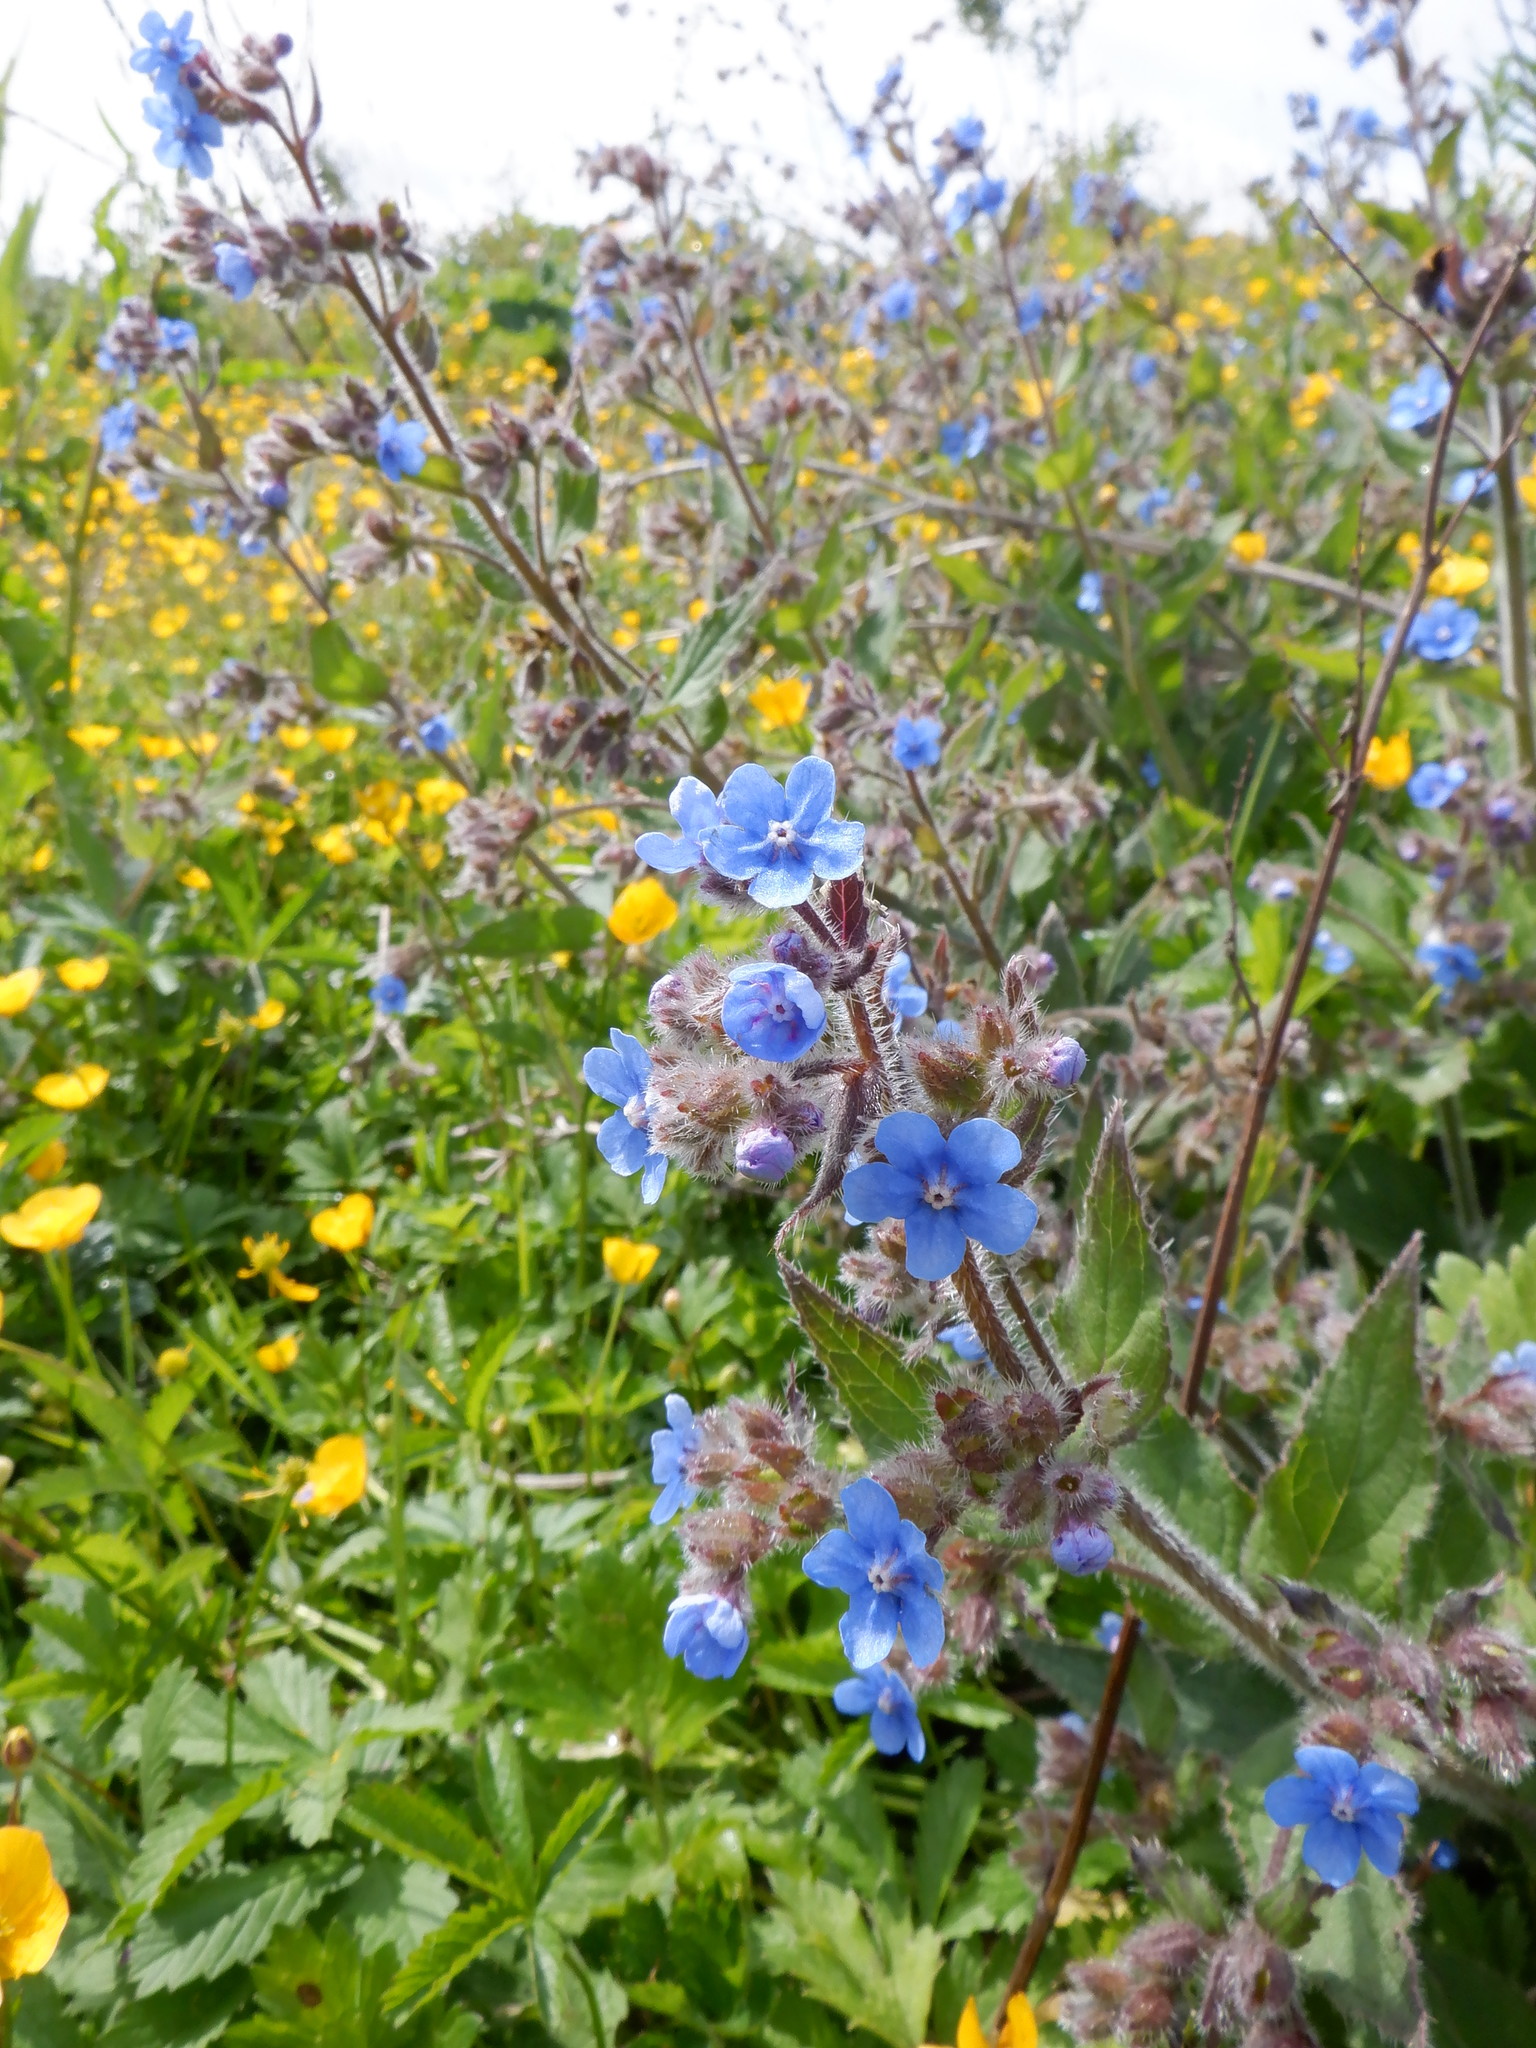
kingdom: Plantae
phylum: Tracheophyta
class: Magnoliopsida
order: Boraginales
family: Boraginaceae
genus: Pentaglottis
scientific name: Pentaglottis sempervirens
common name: Green alkanet
